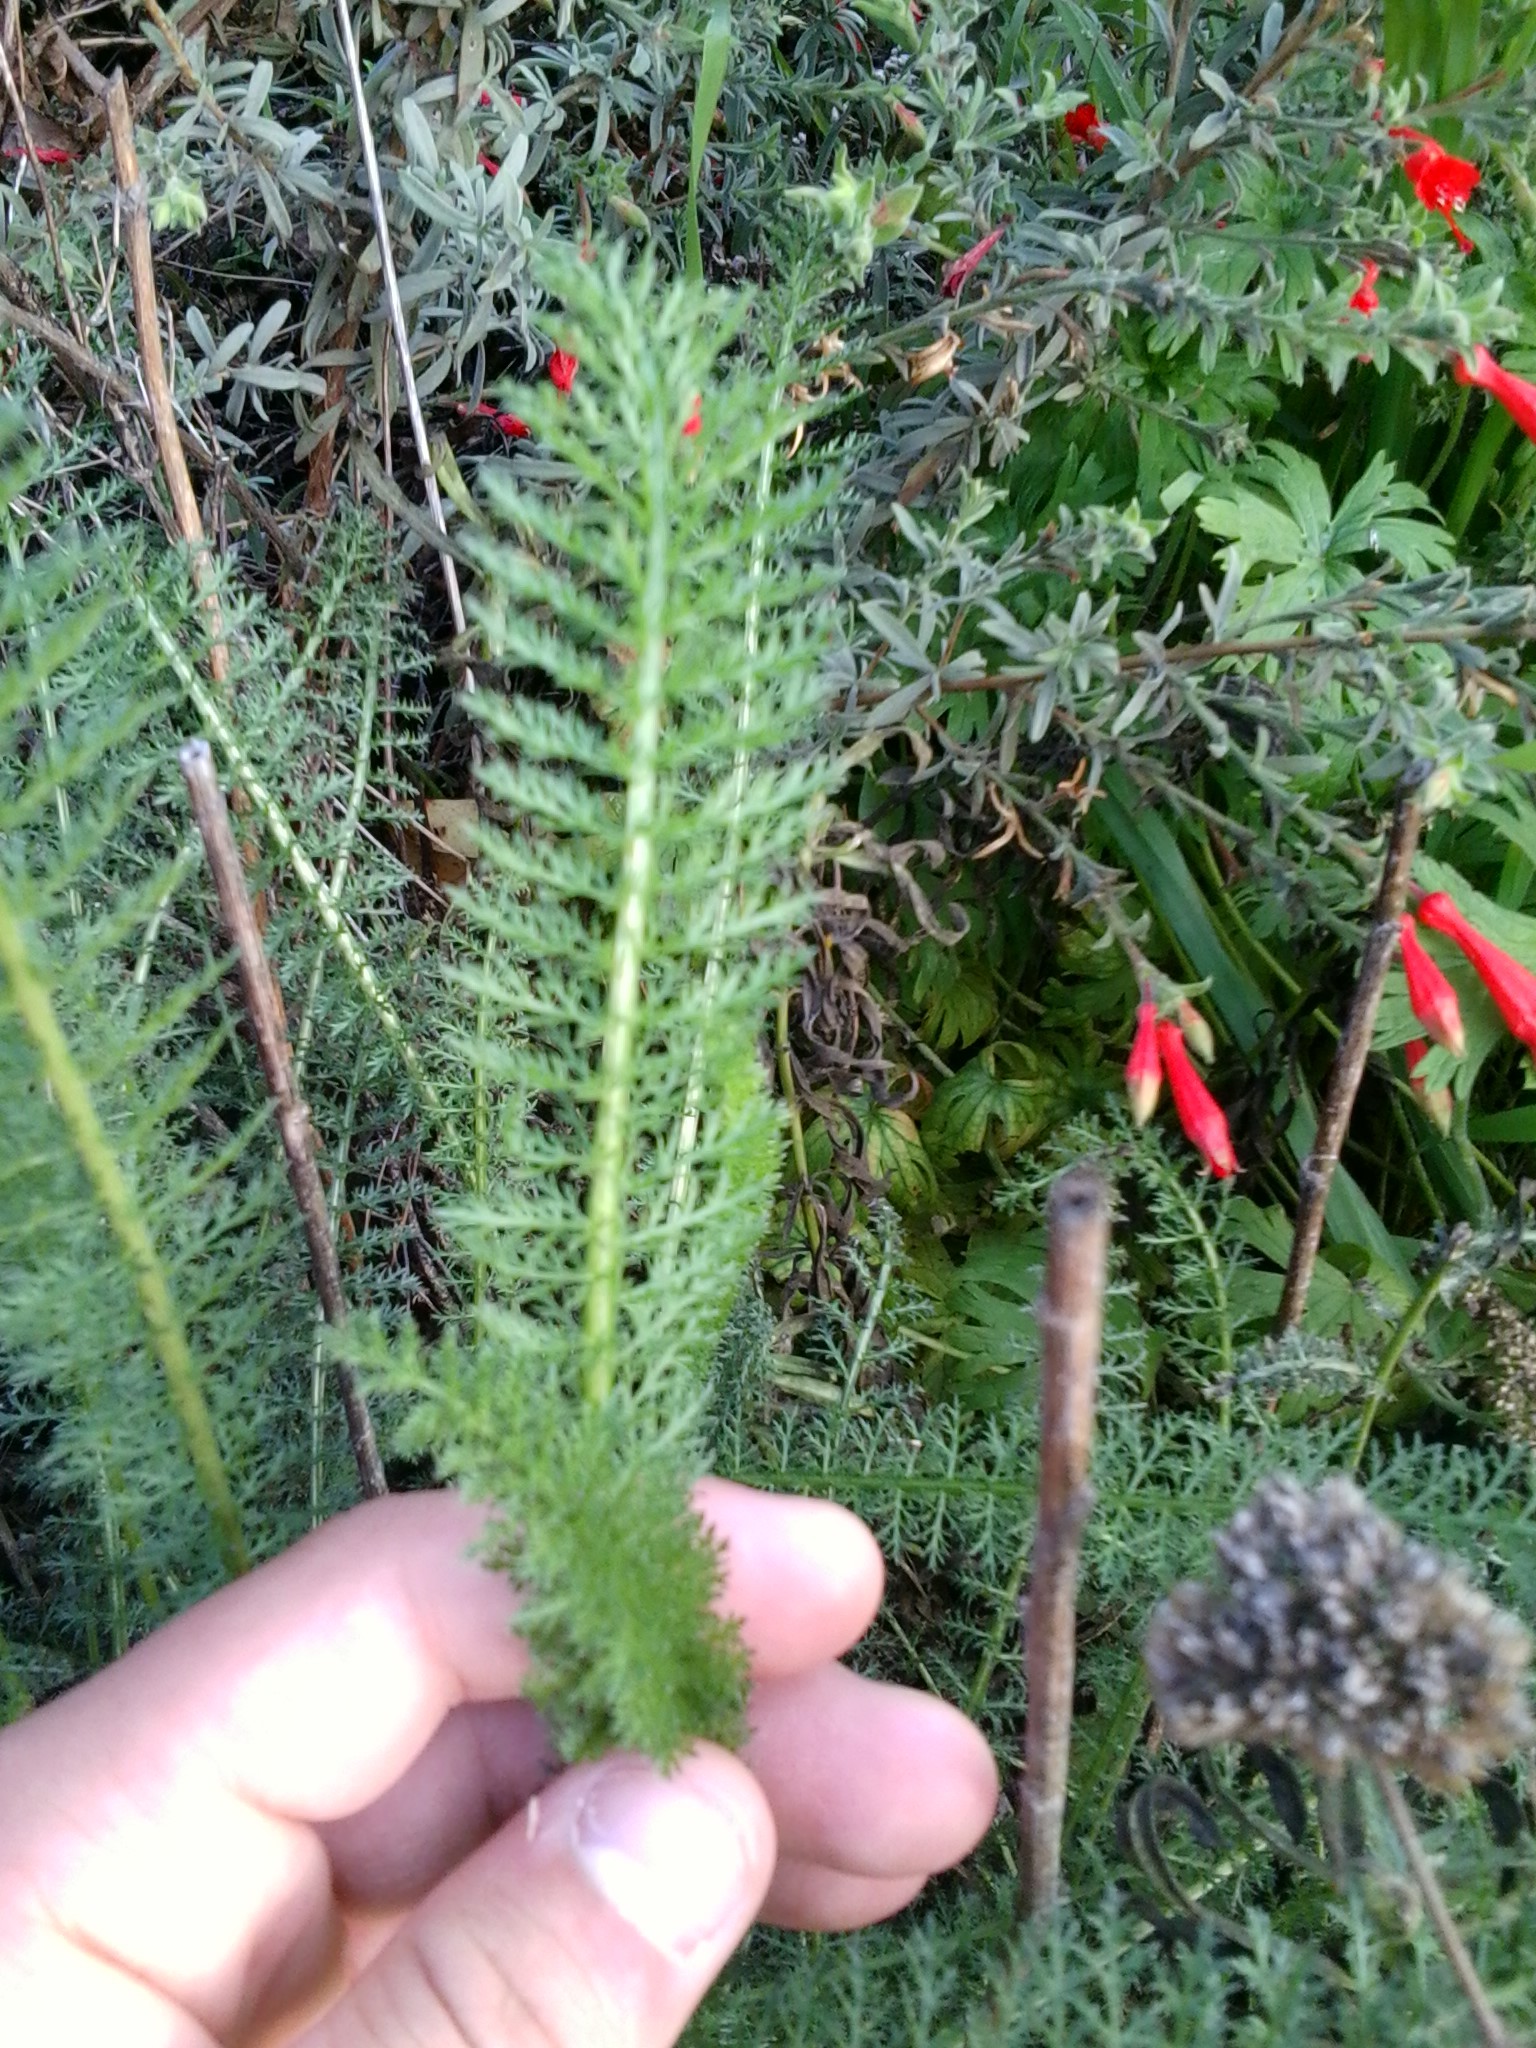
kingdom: Plantae
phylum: Tracheophyta
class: Magnoliopsida
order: Asterales
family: Asteraceae
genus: Achillea
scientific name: Achillea millefolium
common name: Yarrow
